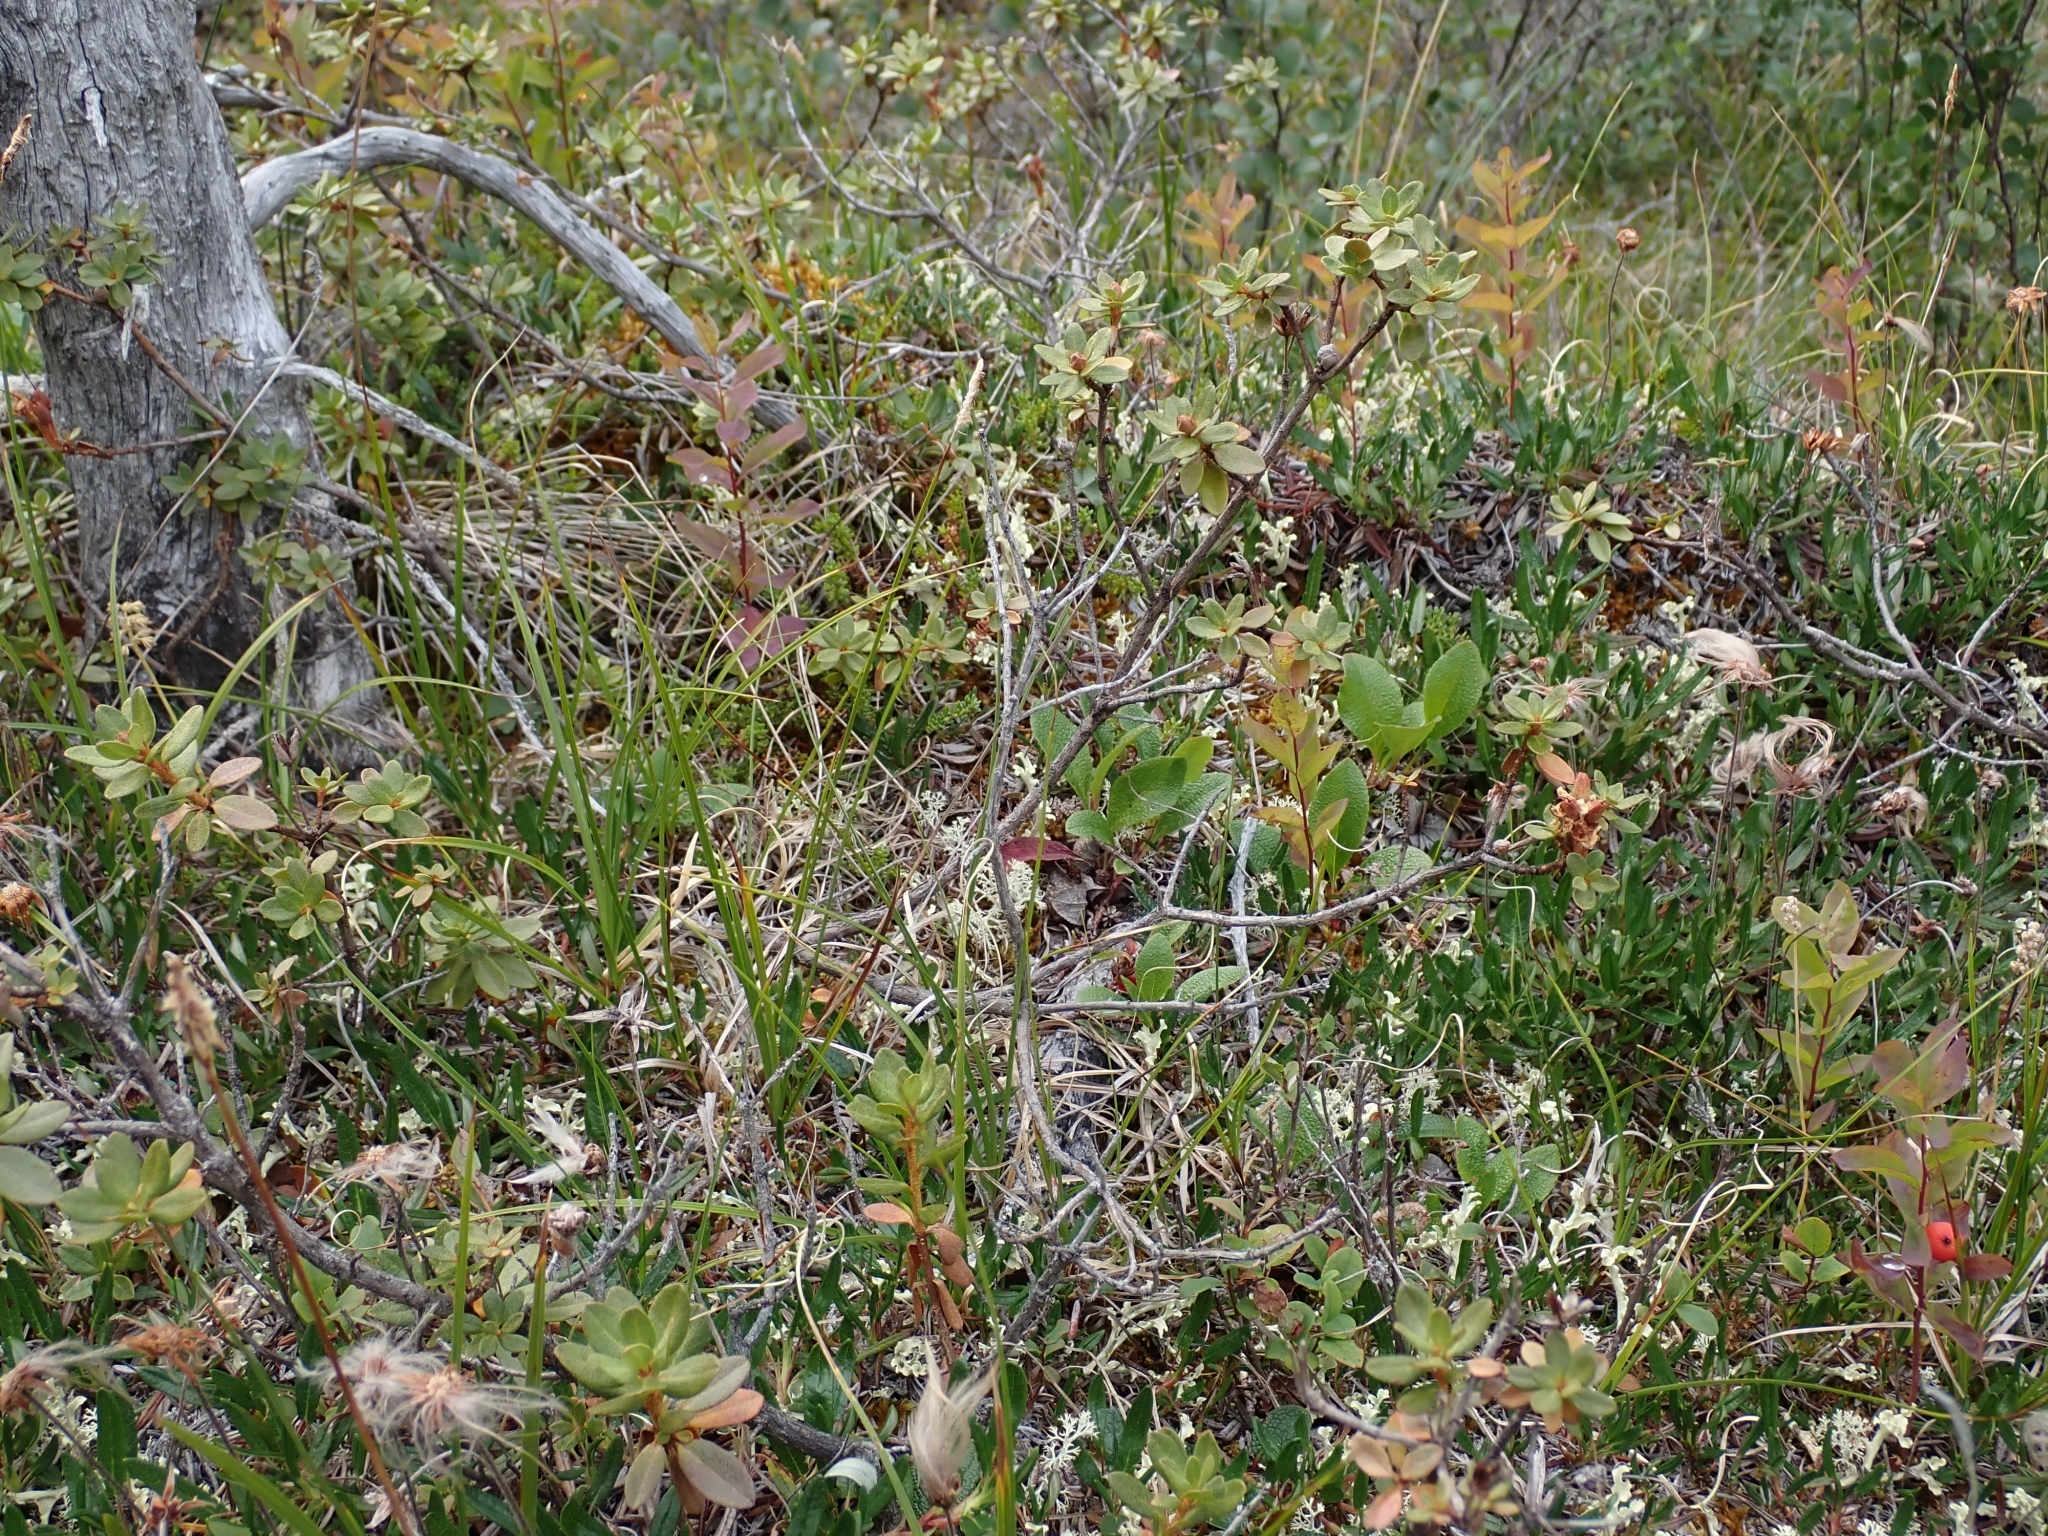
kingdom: Plantae
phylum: Tracheophyta
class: Magnoliopsida
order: Ericales
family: Ericaceae
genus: Rhododendron
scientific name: Rhododendron lapponicum
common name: Lapland rhododendron
